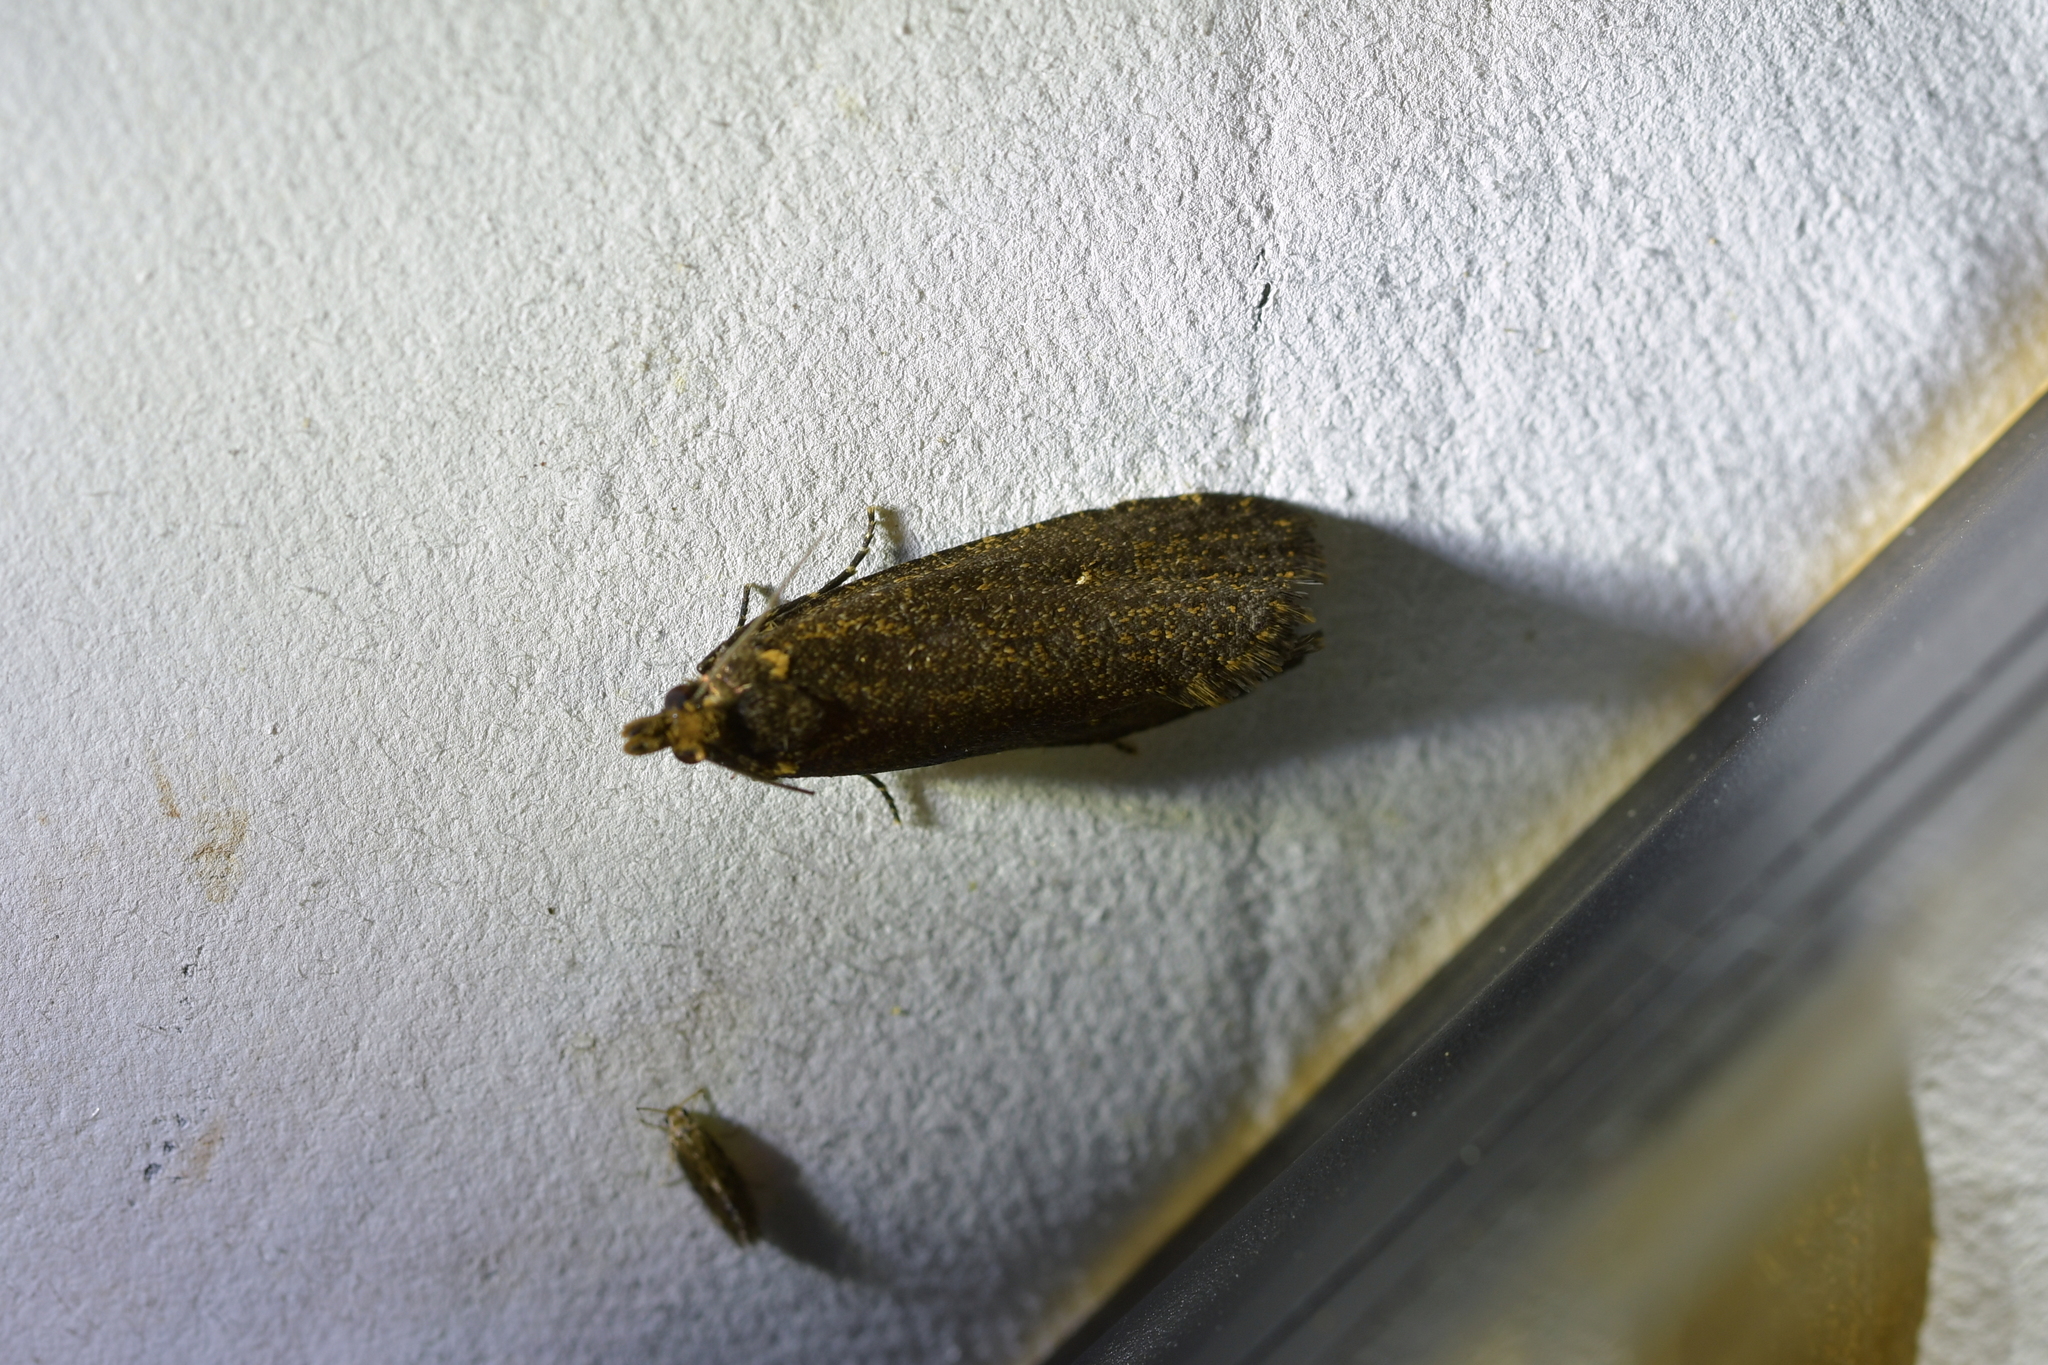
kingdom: Animalia
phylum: Arthropoda
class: Insecta
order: Lepidoptera
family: Tortricidae
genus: Cryptaspasma
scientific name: Cryptaspasma querula
